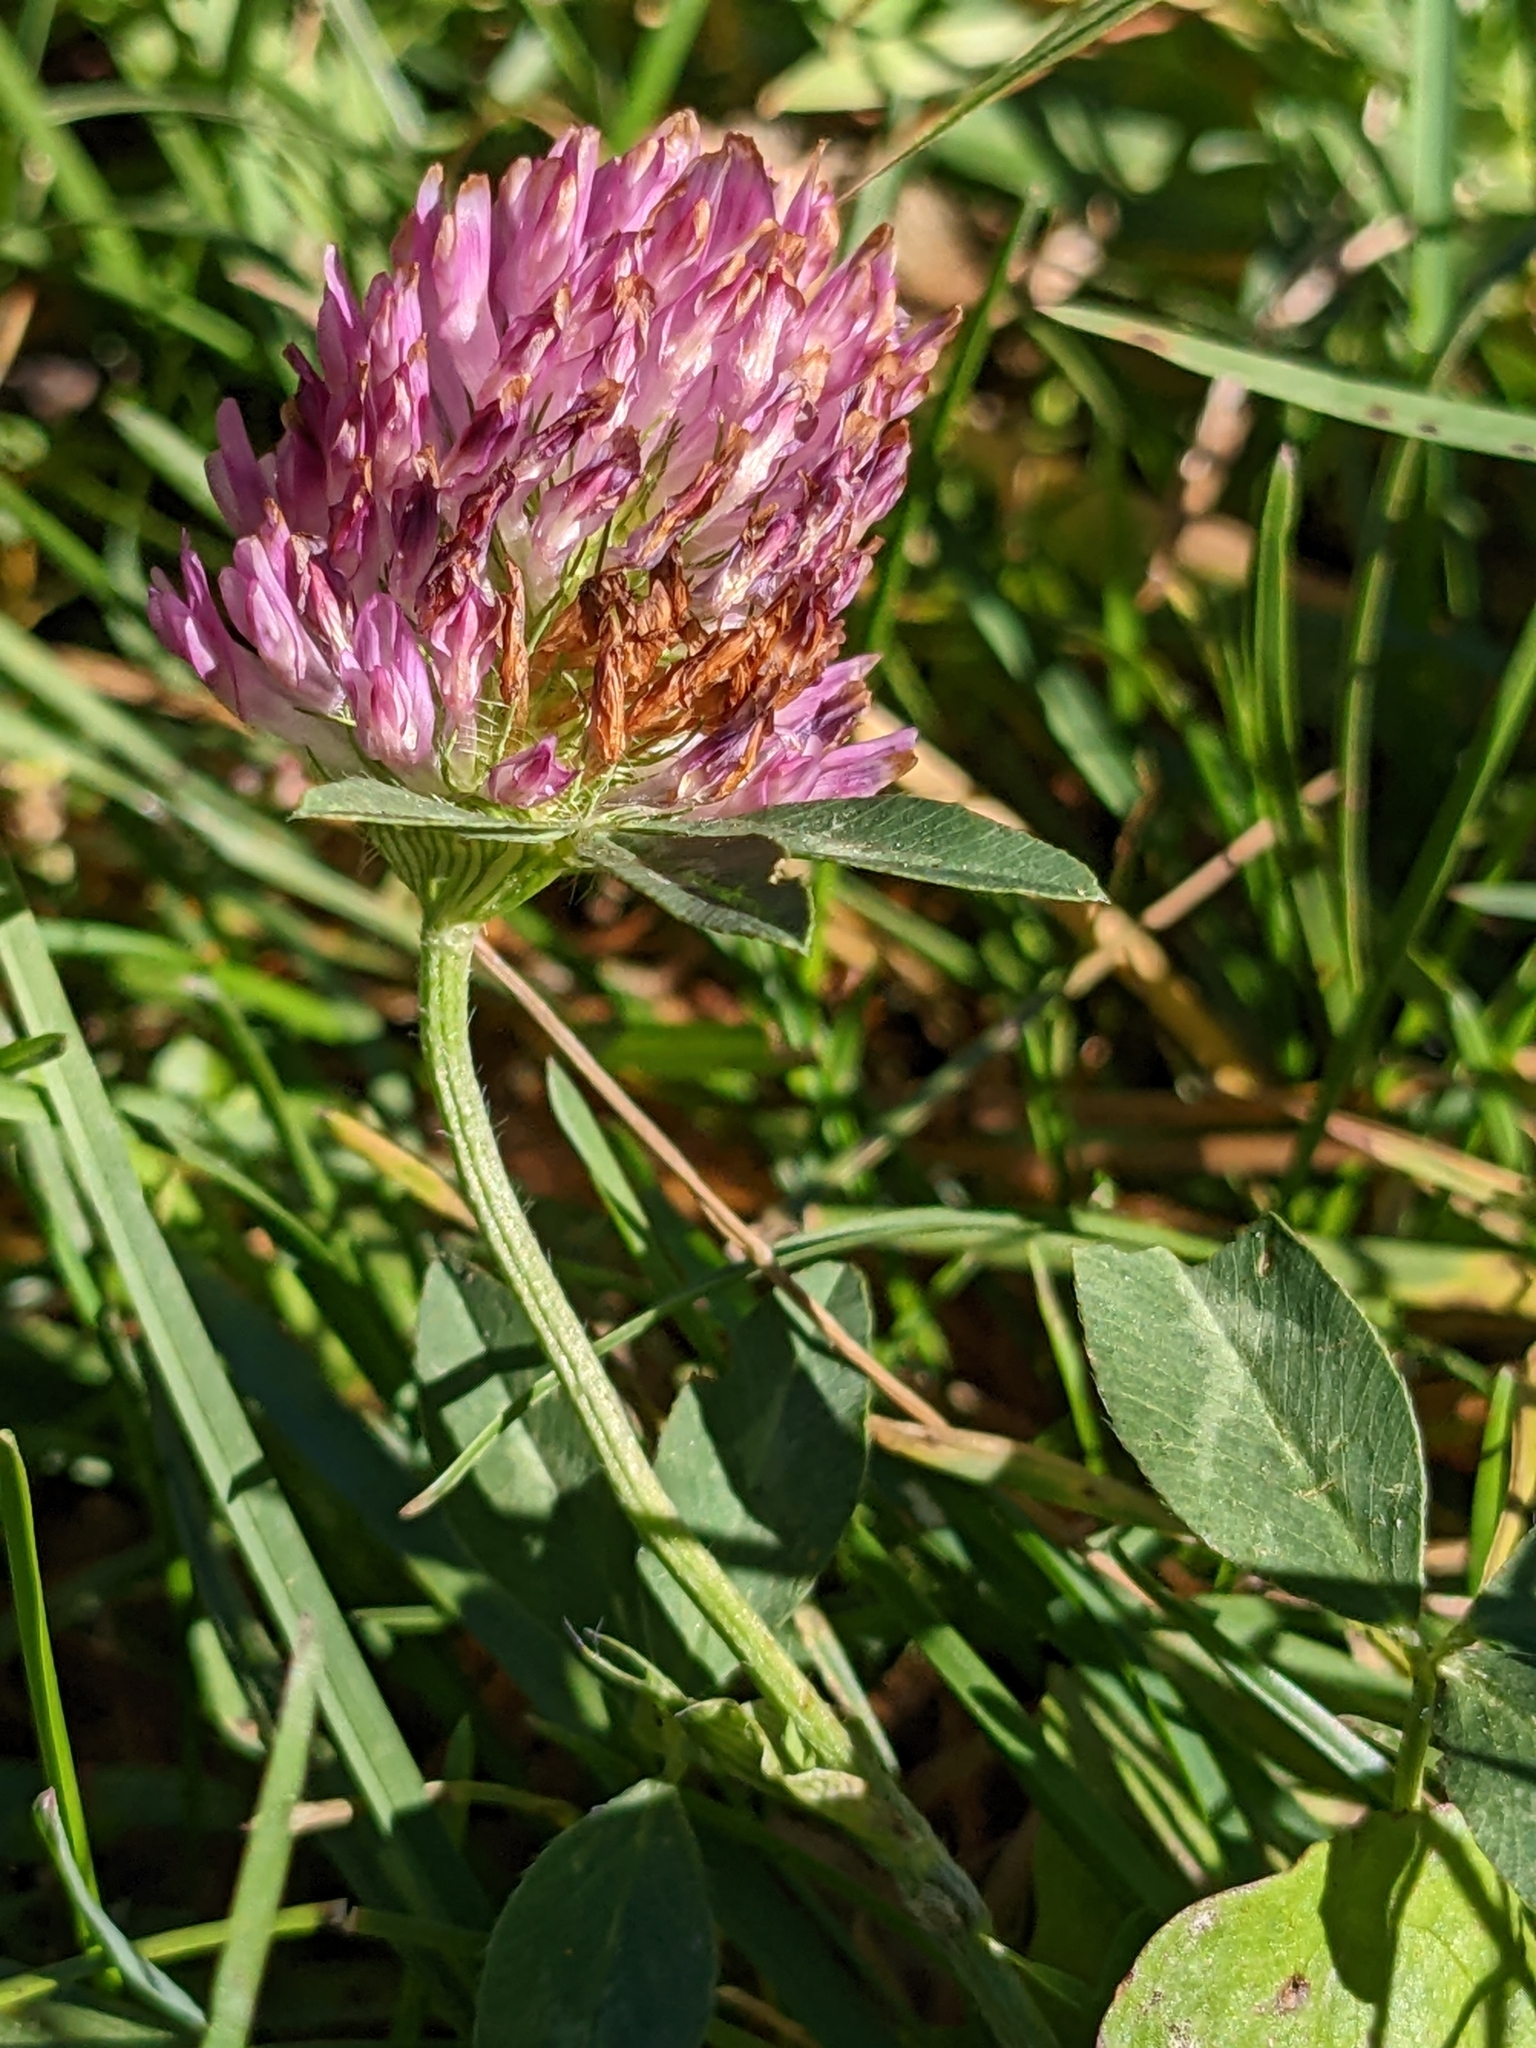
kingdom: Plantae
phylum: Tracheophyta
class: Magnoliopsida
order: Fabales
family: Fabaceae
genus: Trifolium
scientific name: Trifolium pratense
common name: Red clover
